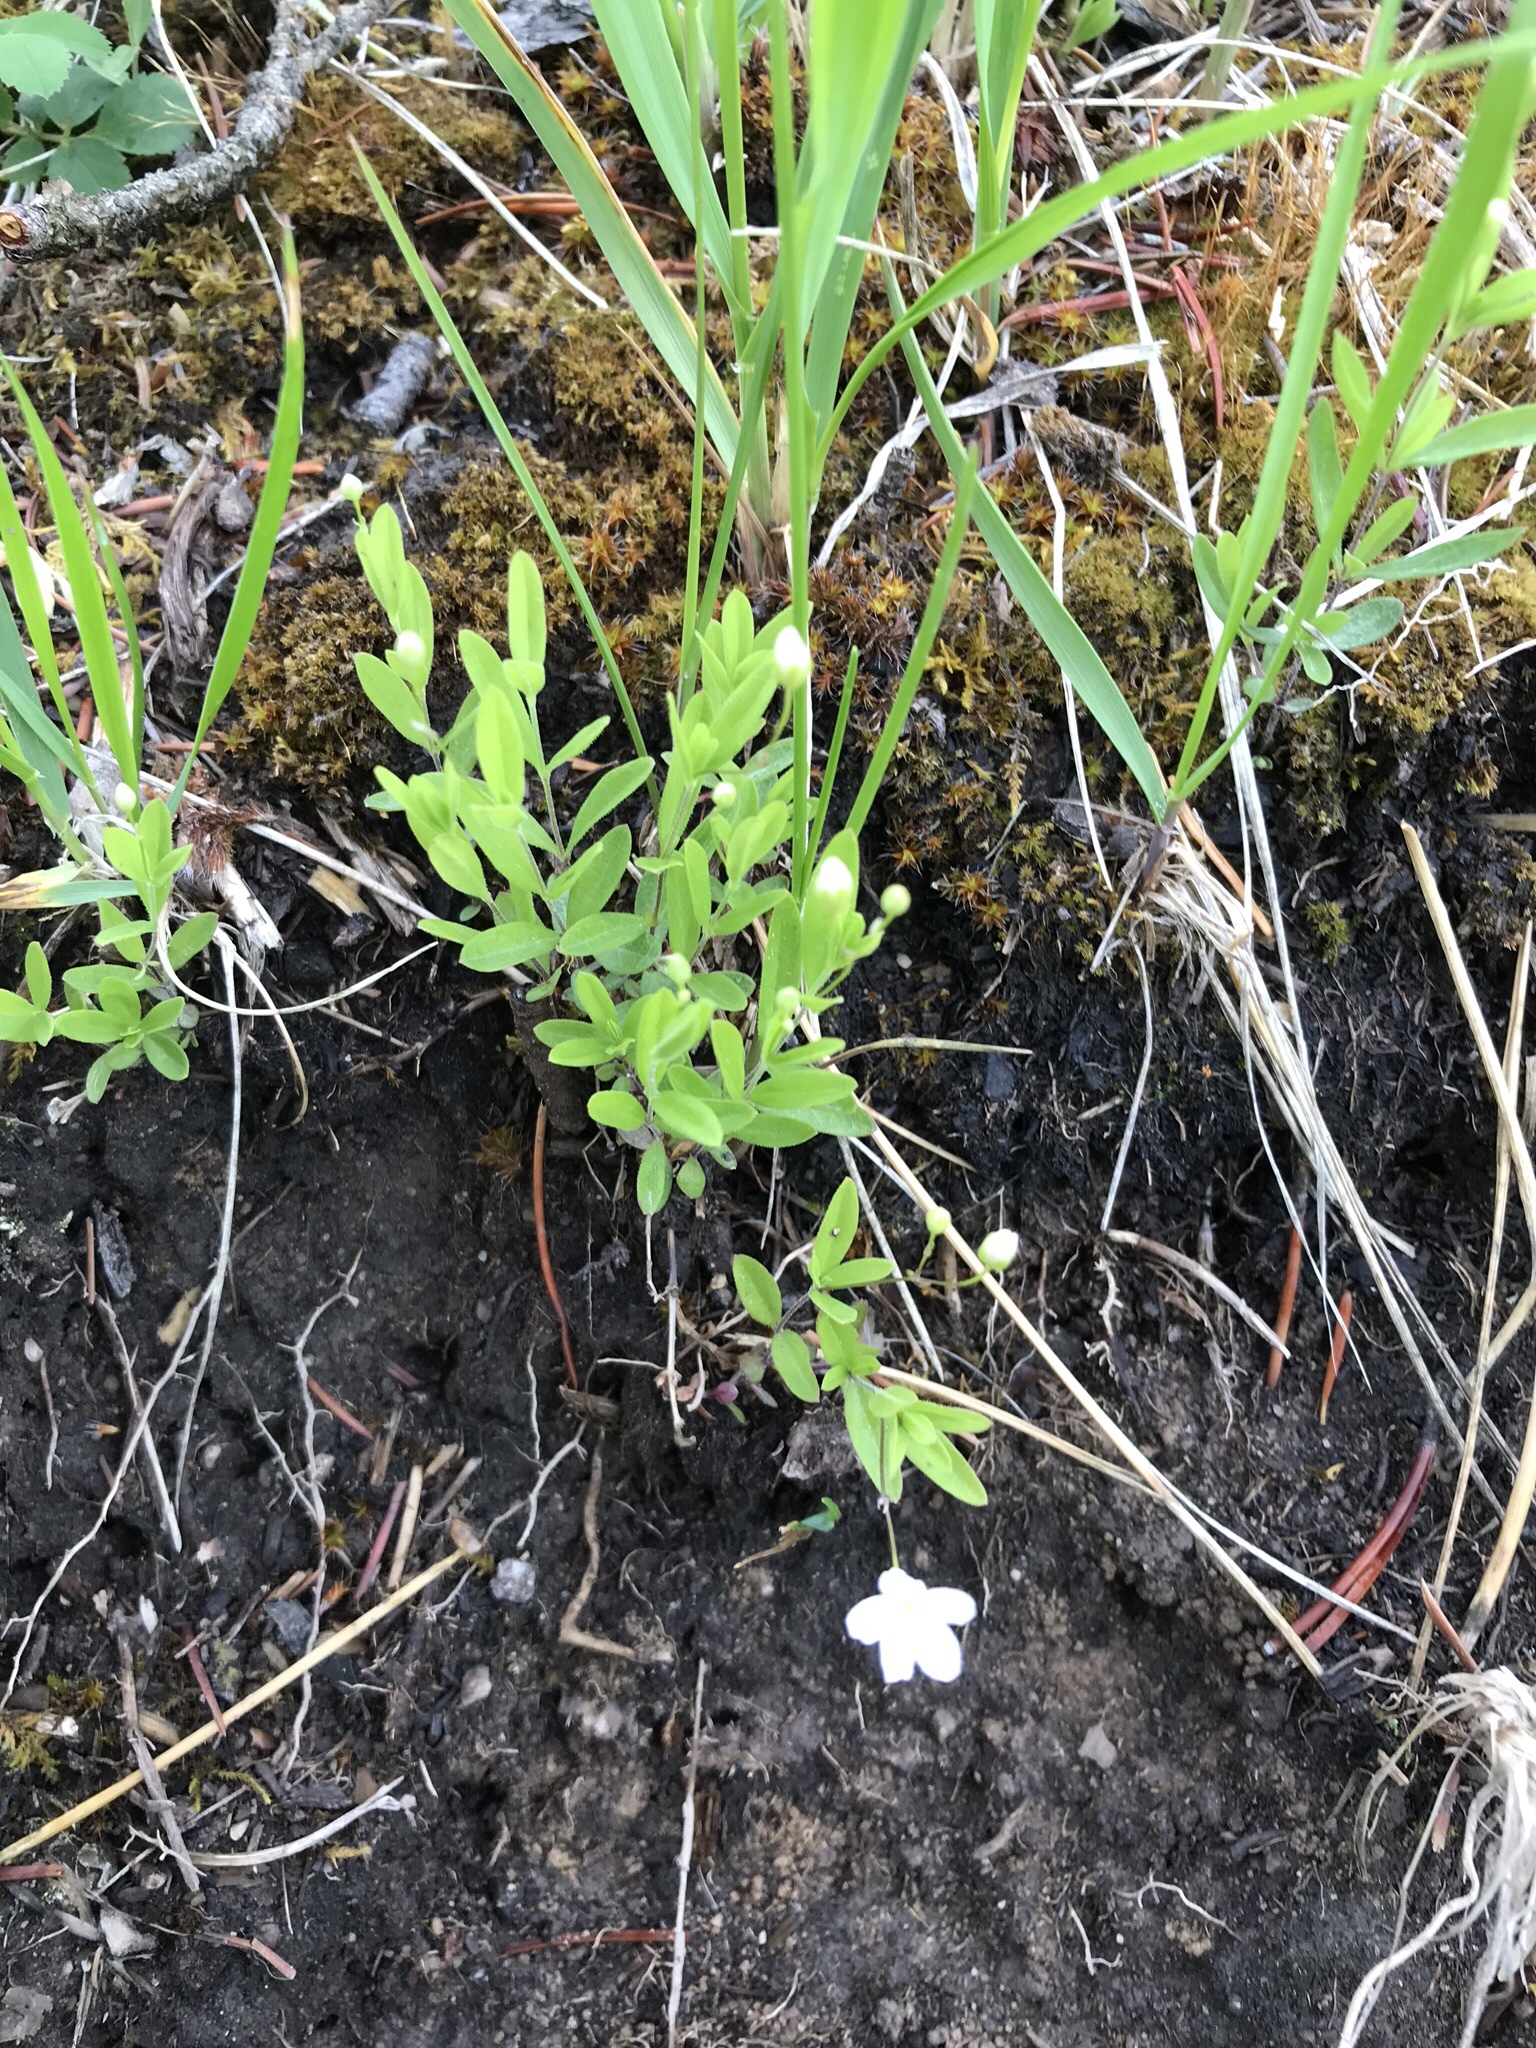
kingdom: Plantae
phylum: Tracheophyta
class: Magnoliopsida
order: Caryophyllales
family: Caryophyllaceae
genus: Moehringia
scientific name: Moehringia lateriflora
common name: Blunt-leaved sandwort
